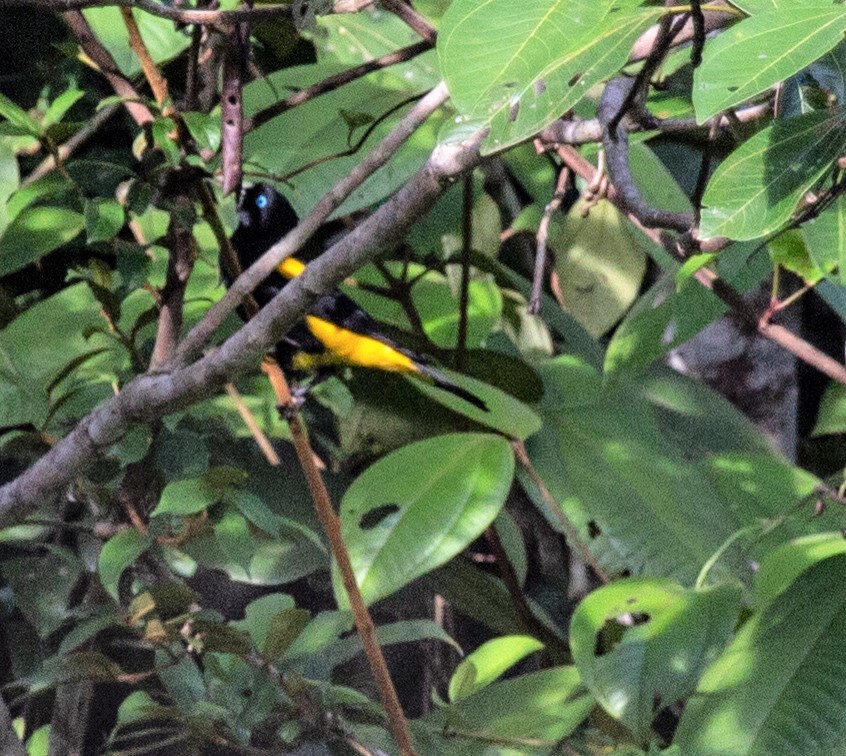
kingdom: Animalia
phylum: Chordata
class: Aves
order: Passeriformes
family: Icteridae
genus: Cacicus
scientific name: Cacicus cela
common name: Yellow-rumped cacique
